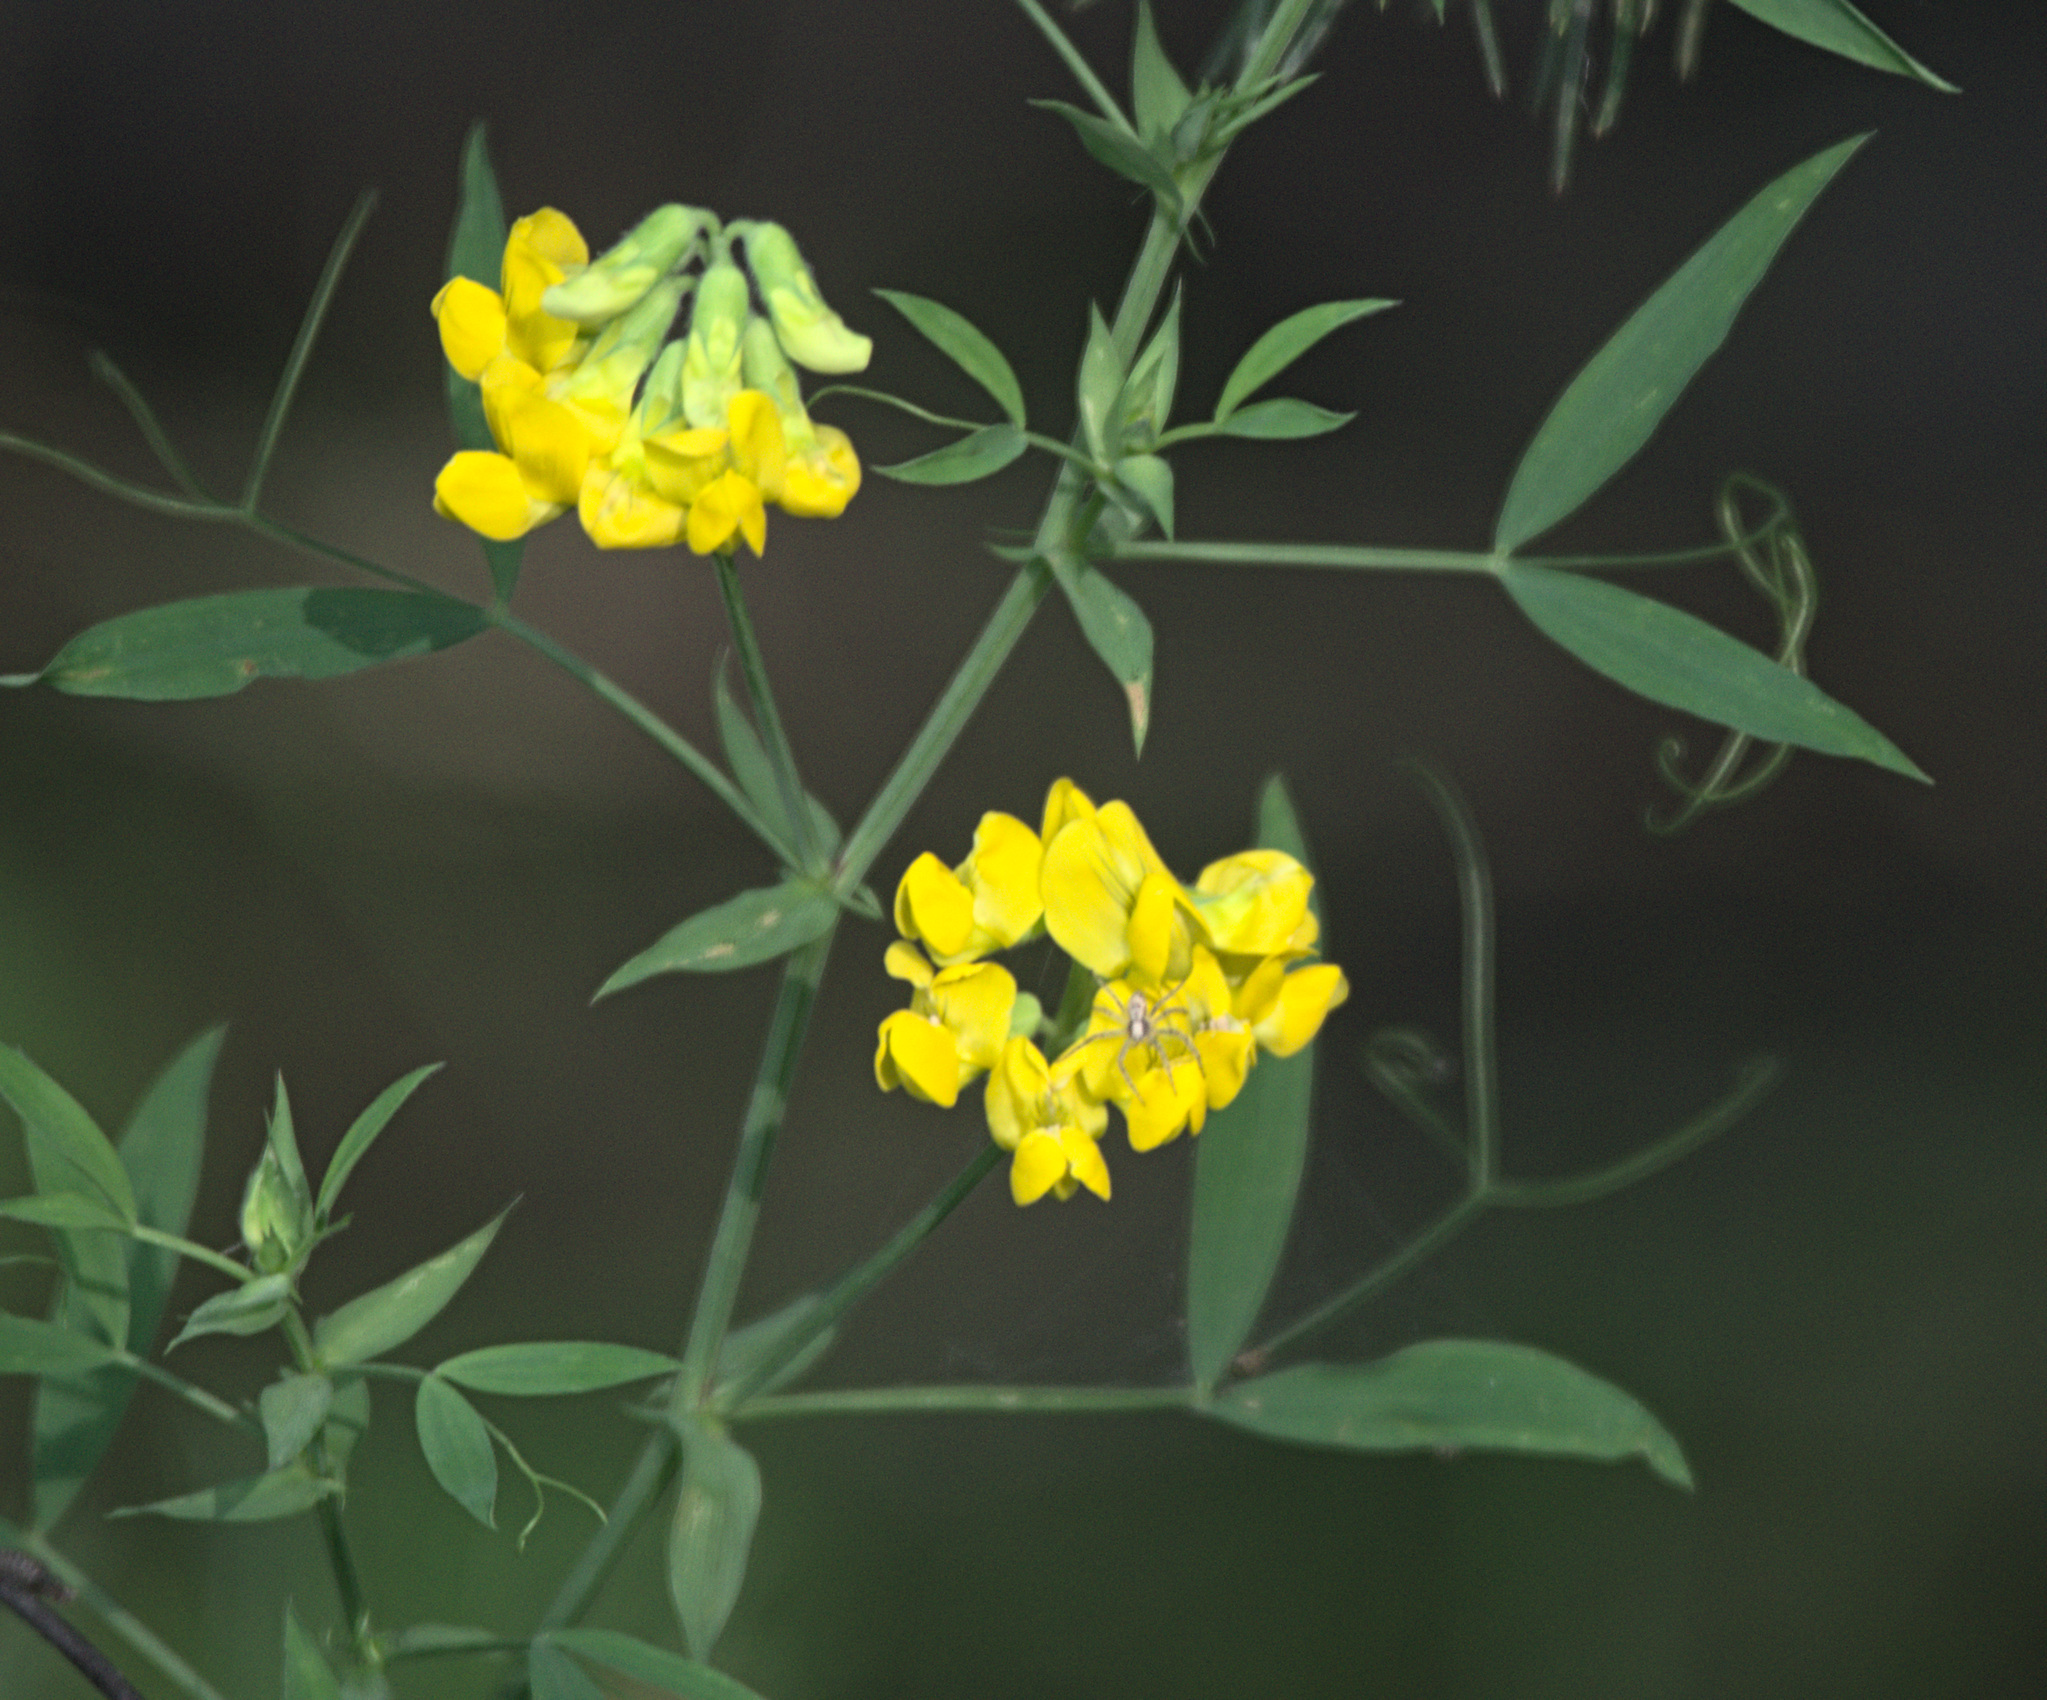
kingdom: Plantae
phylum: Tracheophyta
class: Magnoliopsida
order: Fabales
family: Fabaceae
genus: Lathyrus
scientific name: Lathyrus pratensis
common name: Meadow vetchling
